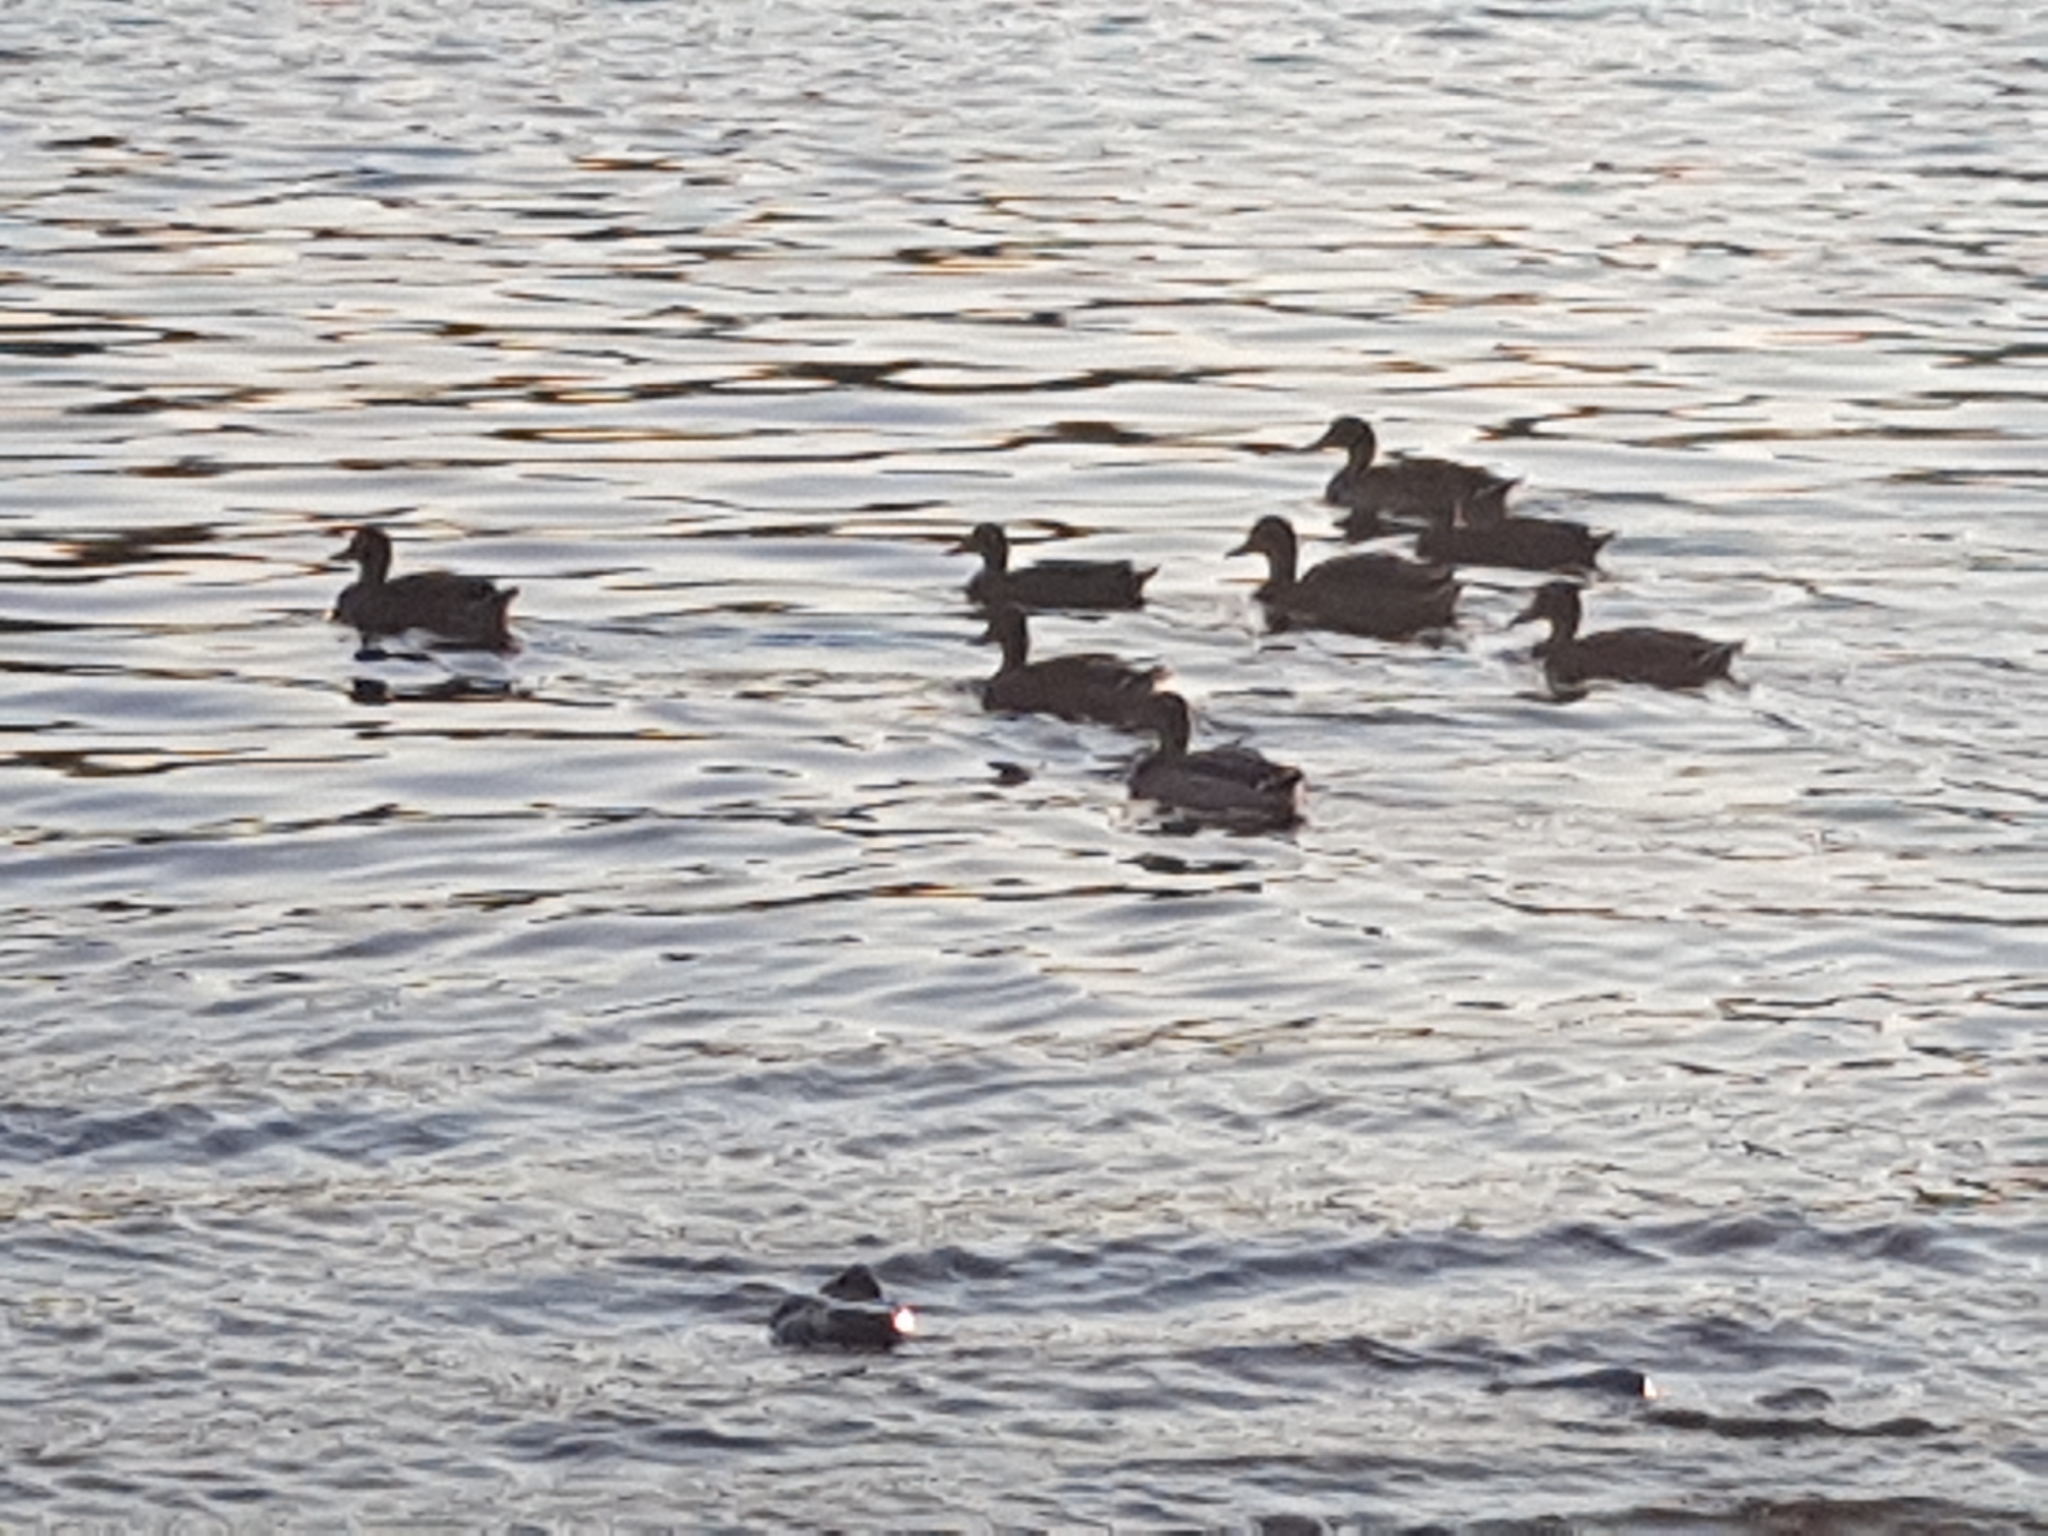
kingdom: Animalia
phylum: Chordata
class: Aves
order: Anseriformes
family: Anatidae
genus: Anas
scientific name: Anas platyrhynchos
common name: Mallard
